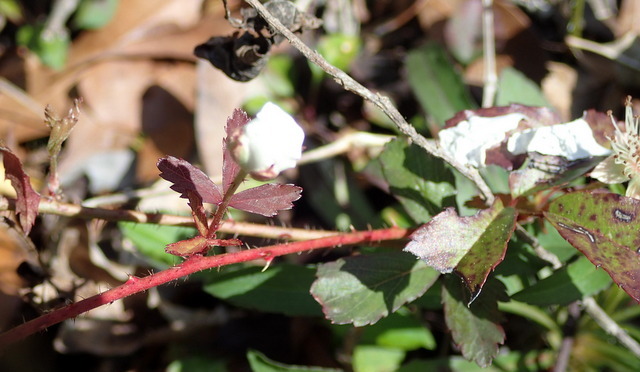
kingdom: Plantae
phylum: Tracheophyta
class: Magnoliopsida
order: Rosales
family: Rosaceae
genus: Rubus
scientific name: Rubus trivialis
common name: Southern dewberry
